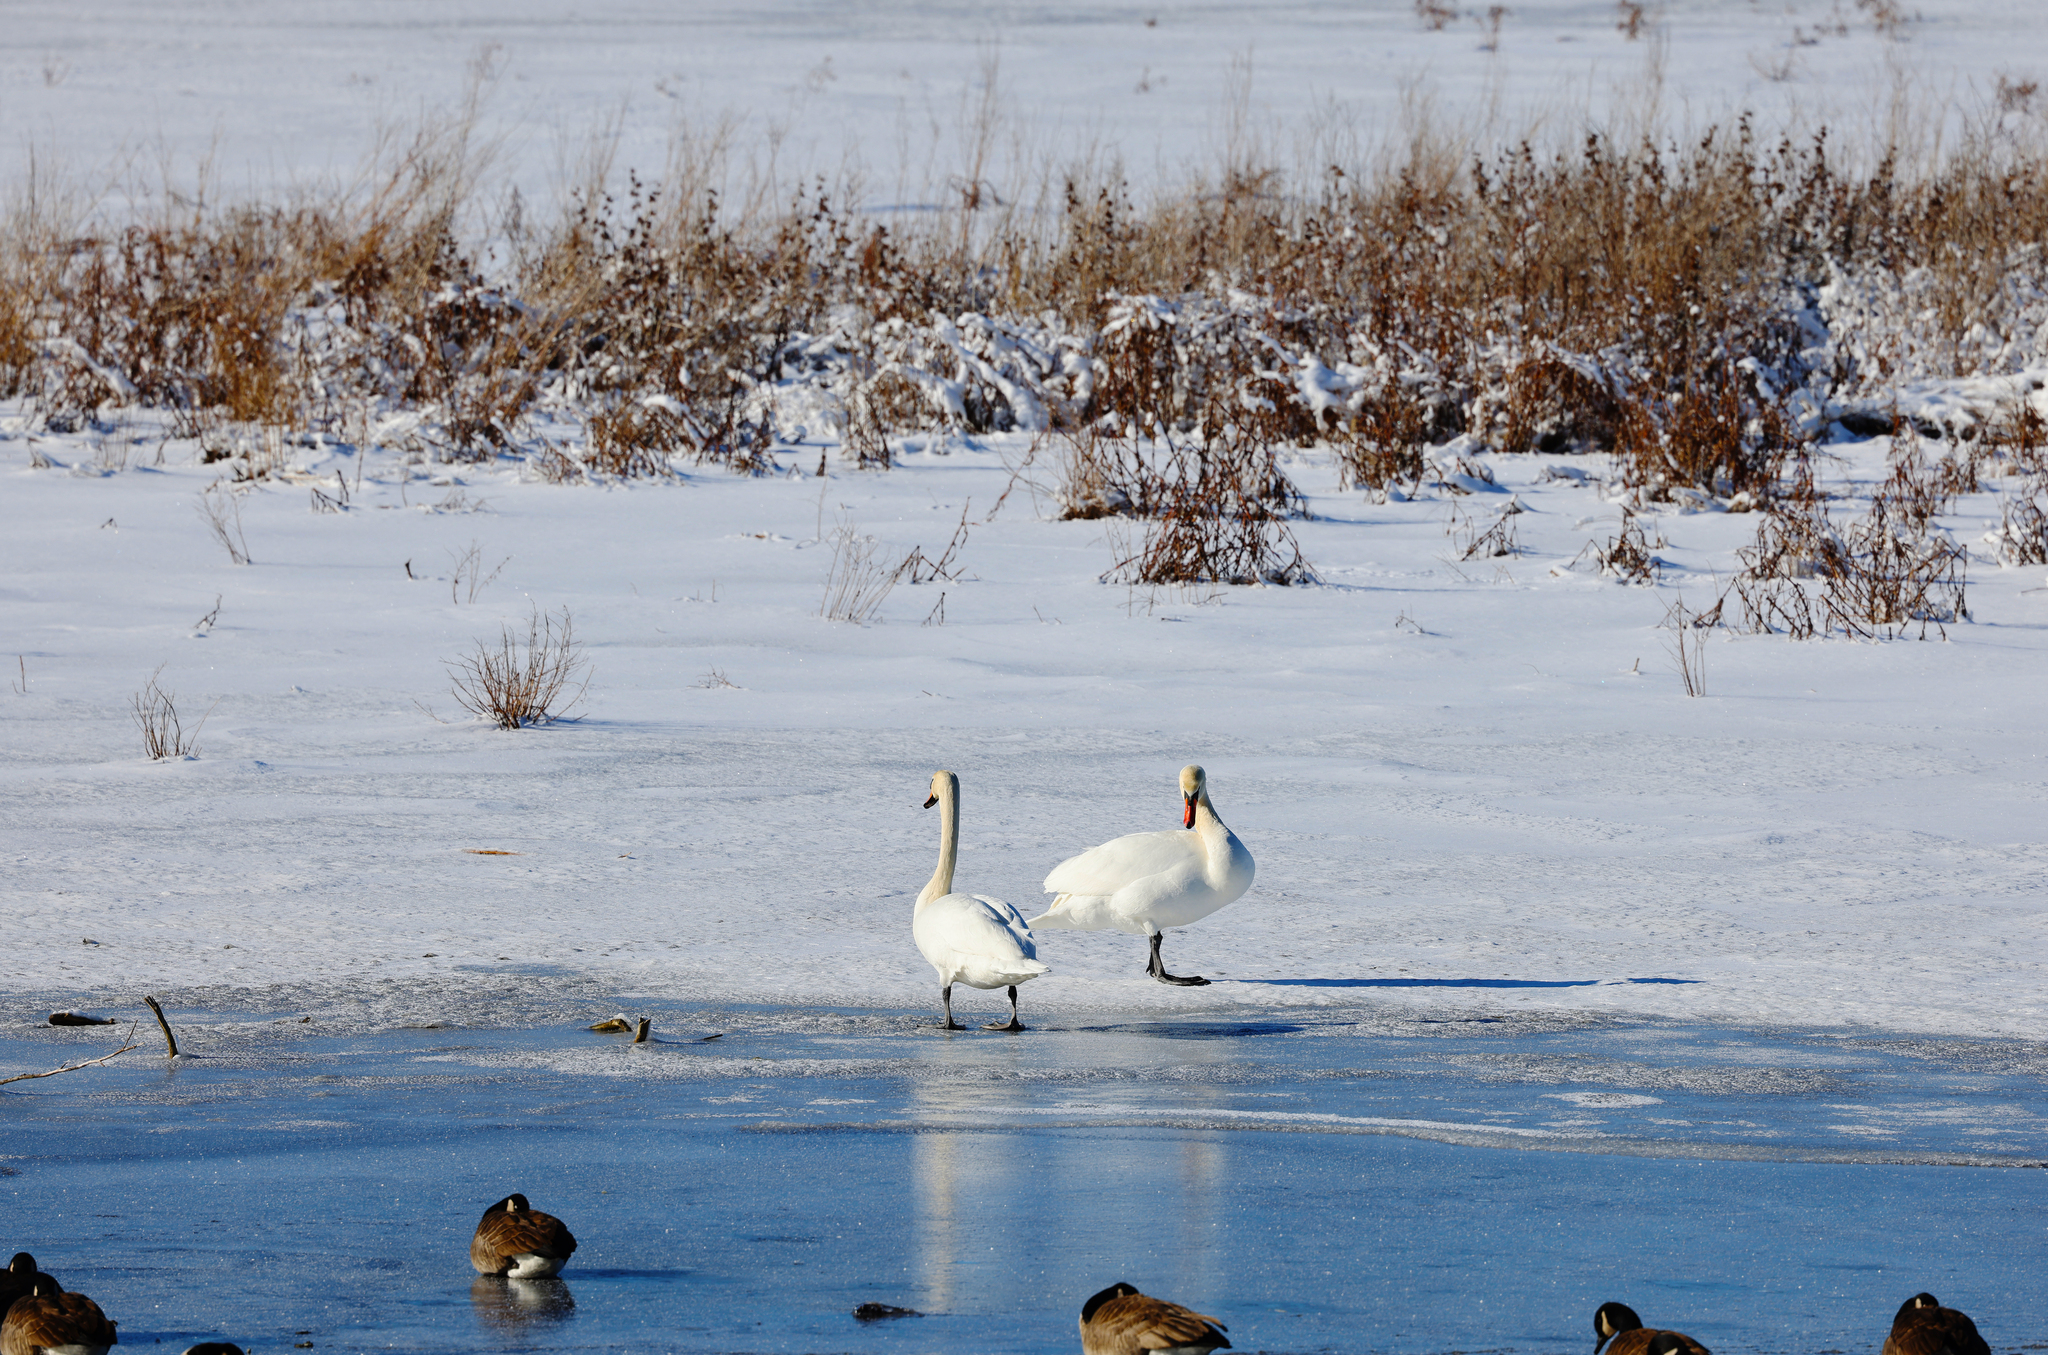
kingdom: Animalia
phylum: Chordata
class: Aves
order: Anseriformes
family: Anatidae
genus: Cygnus
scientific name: Cygnus olor
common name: Mute swan
